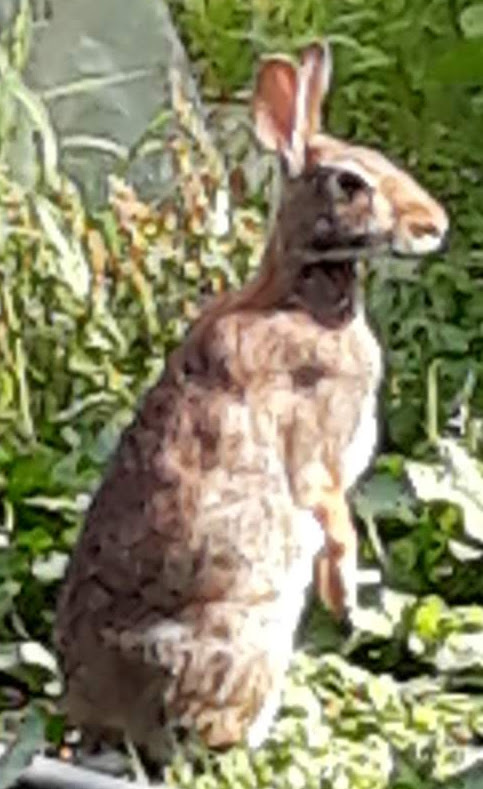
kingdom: Animalia
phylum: Chordata
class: Mammalia
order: Lagomorpha
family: Leporidae
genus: Sylvilagus
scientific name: Sylvilagus floridanus
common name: Eastern cottontail
